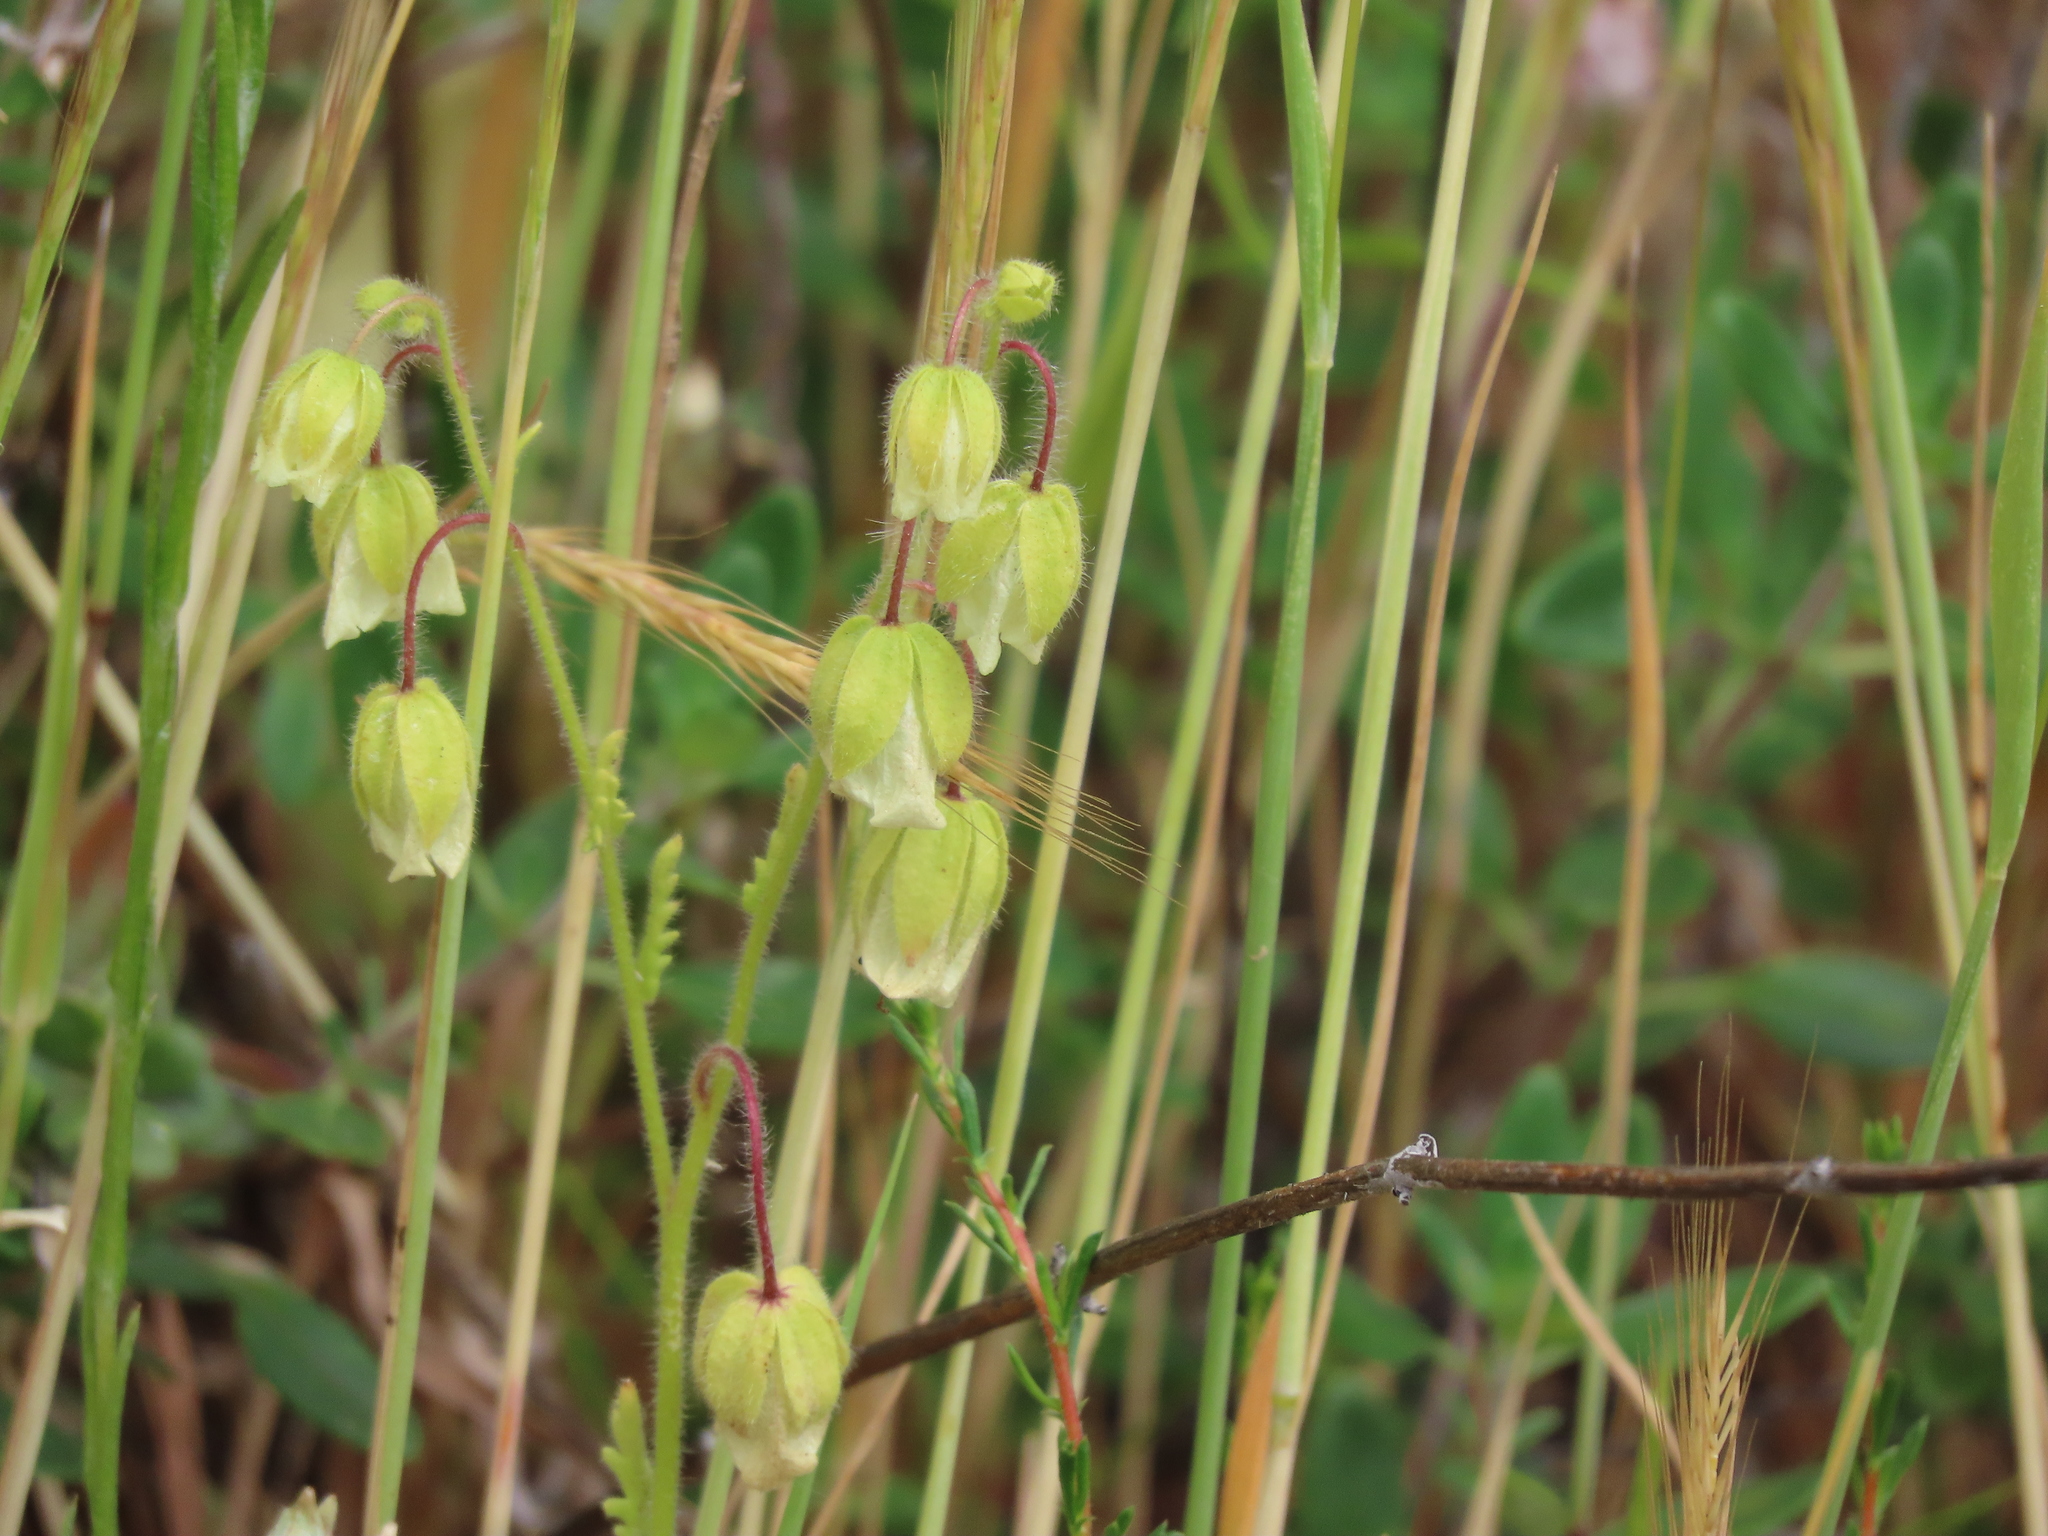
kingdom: Plantae
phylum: Tracheophyta
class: Magnoliopsida
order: Boraginales
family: Hydrophyllaceae
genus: Emmenanthe
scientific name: Emmenanthe penduliflora
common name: Whispering-bells
